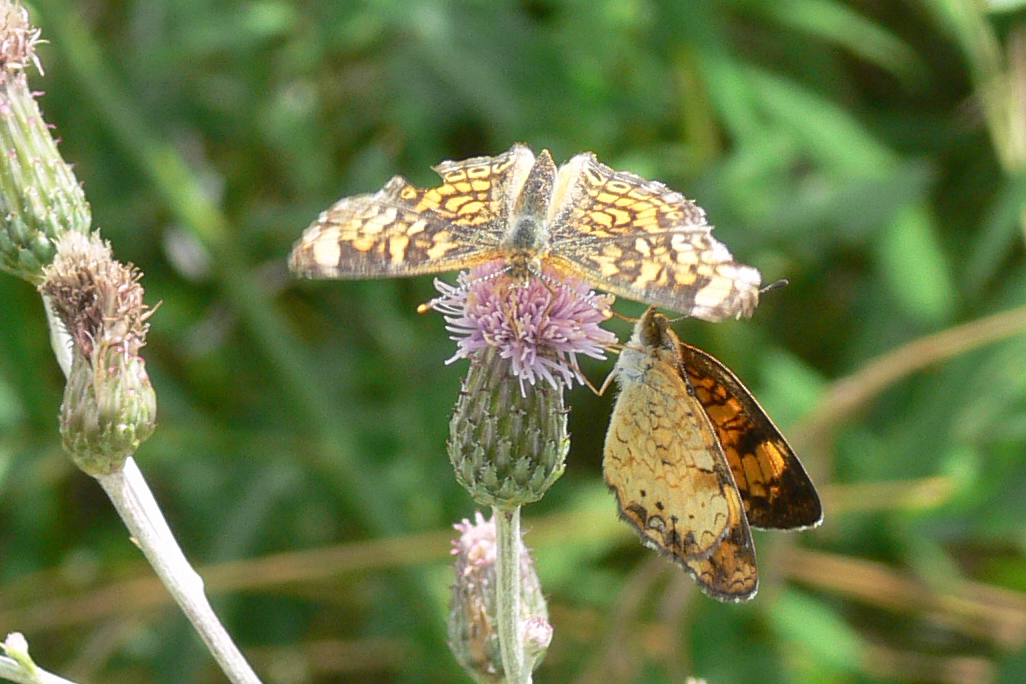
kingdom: Animalia
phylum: Arthropoda
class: Insecta
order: Lepidoptera
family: Nymphalidae
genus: Phyciodes
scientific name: Phyciodes tharos
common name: Pearl crescent
